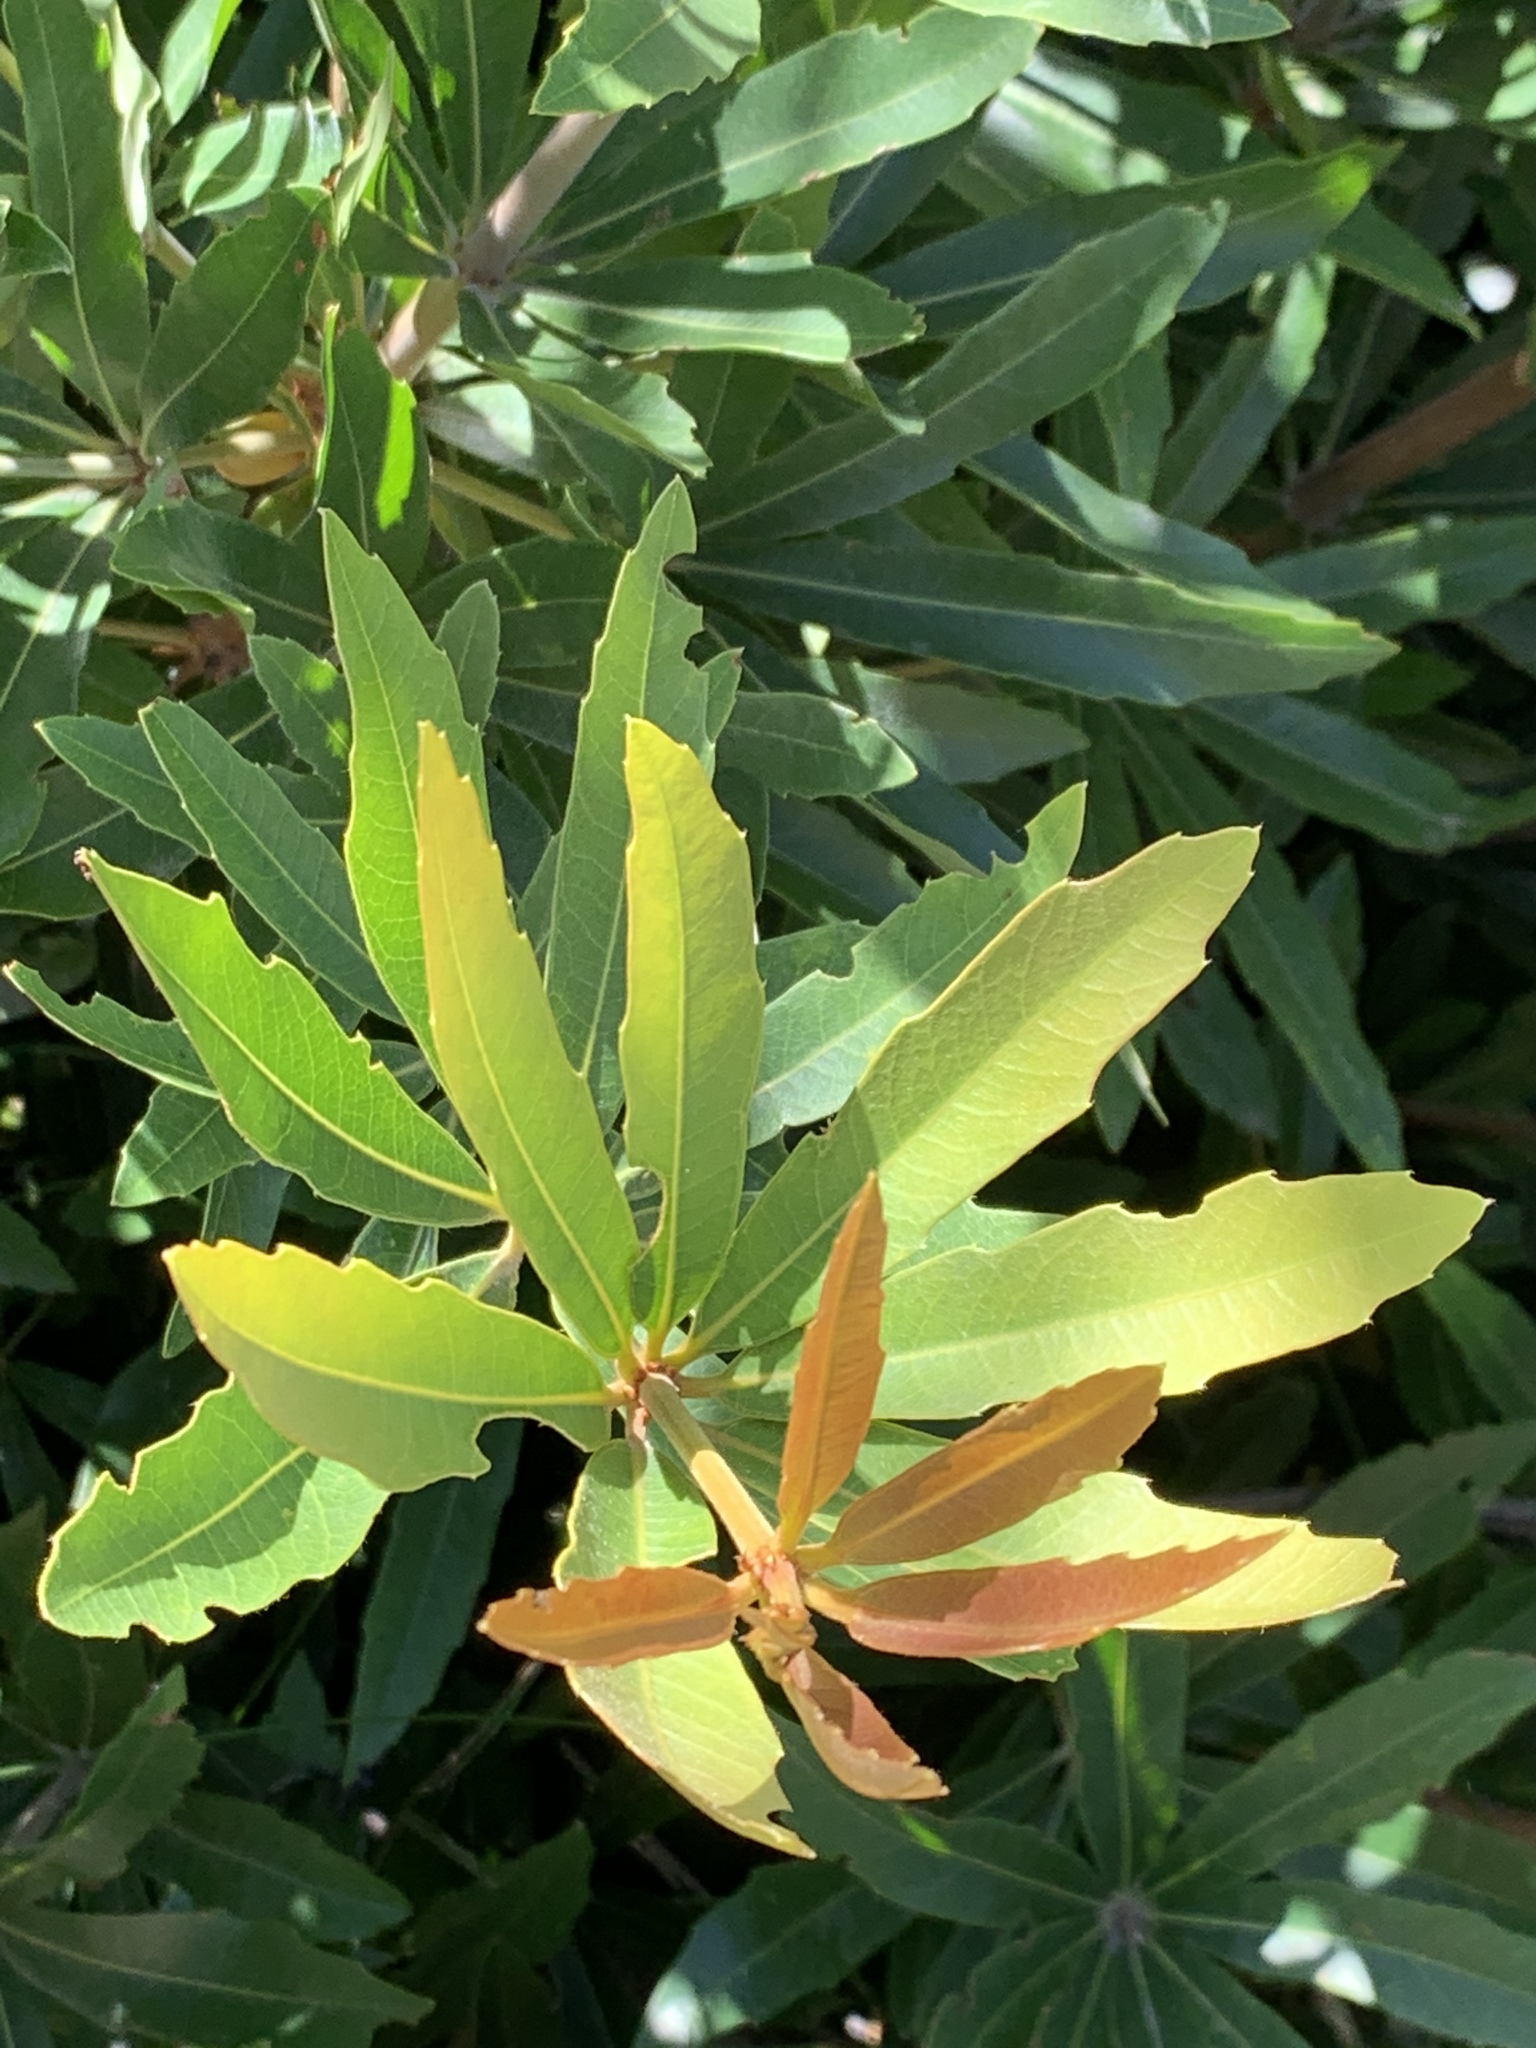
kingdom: Plantae
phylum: Tracheophyta
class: Magnoliopsida
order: Proteales
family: Proteaceae
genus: Brabejum
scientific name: Brabejum stellatifolium
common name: Wild almond
